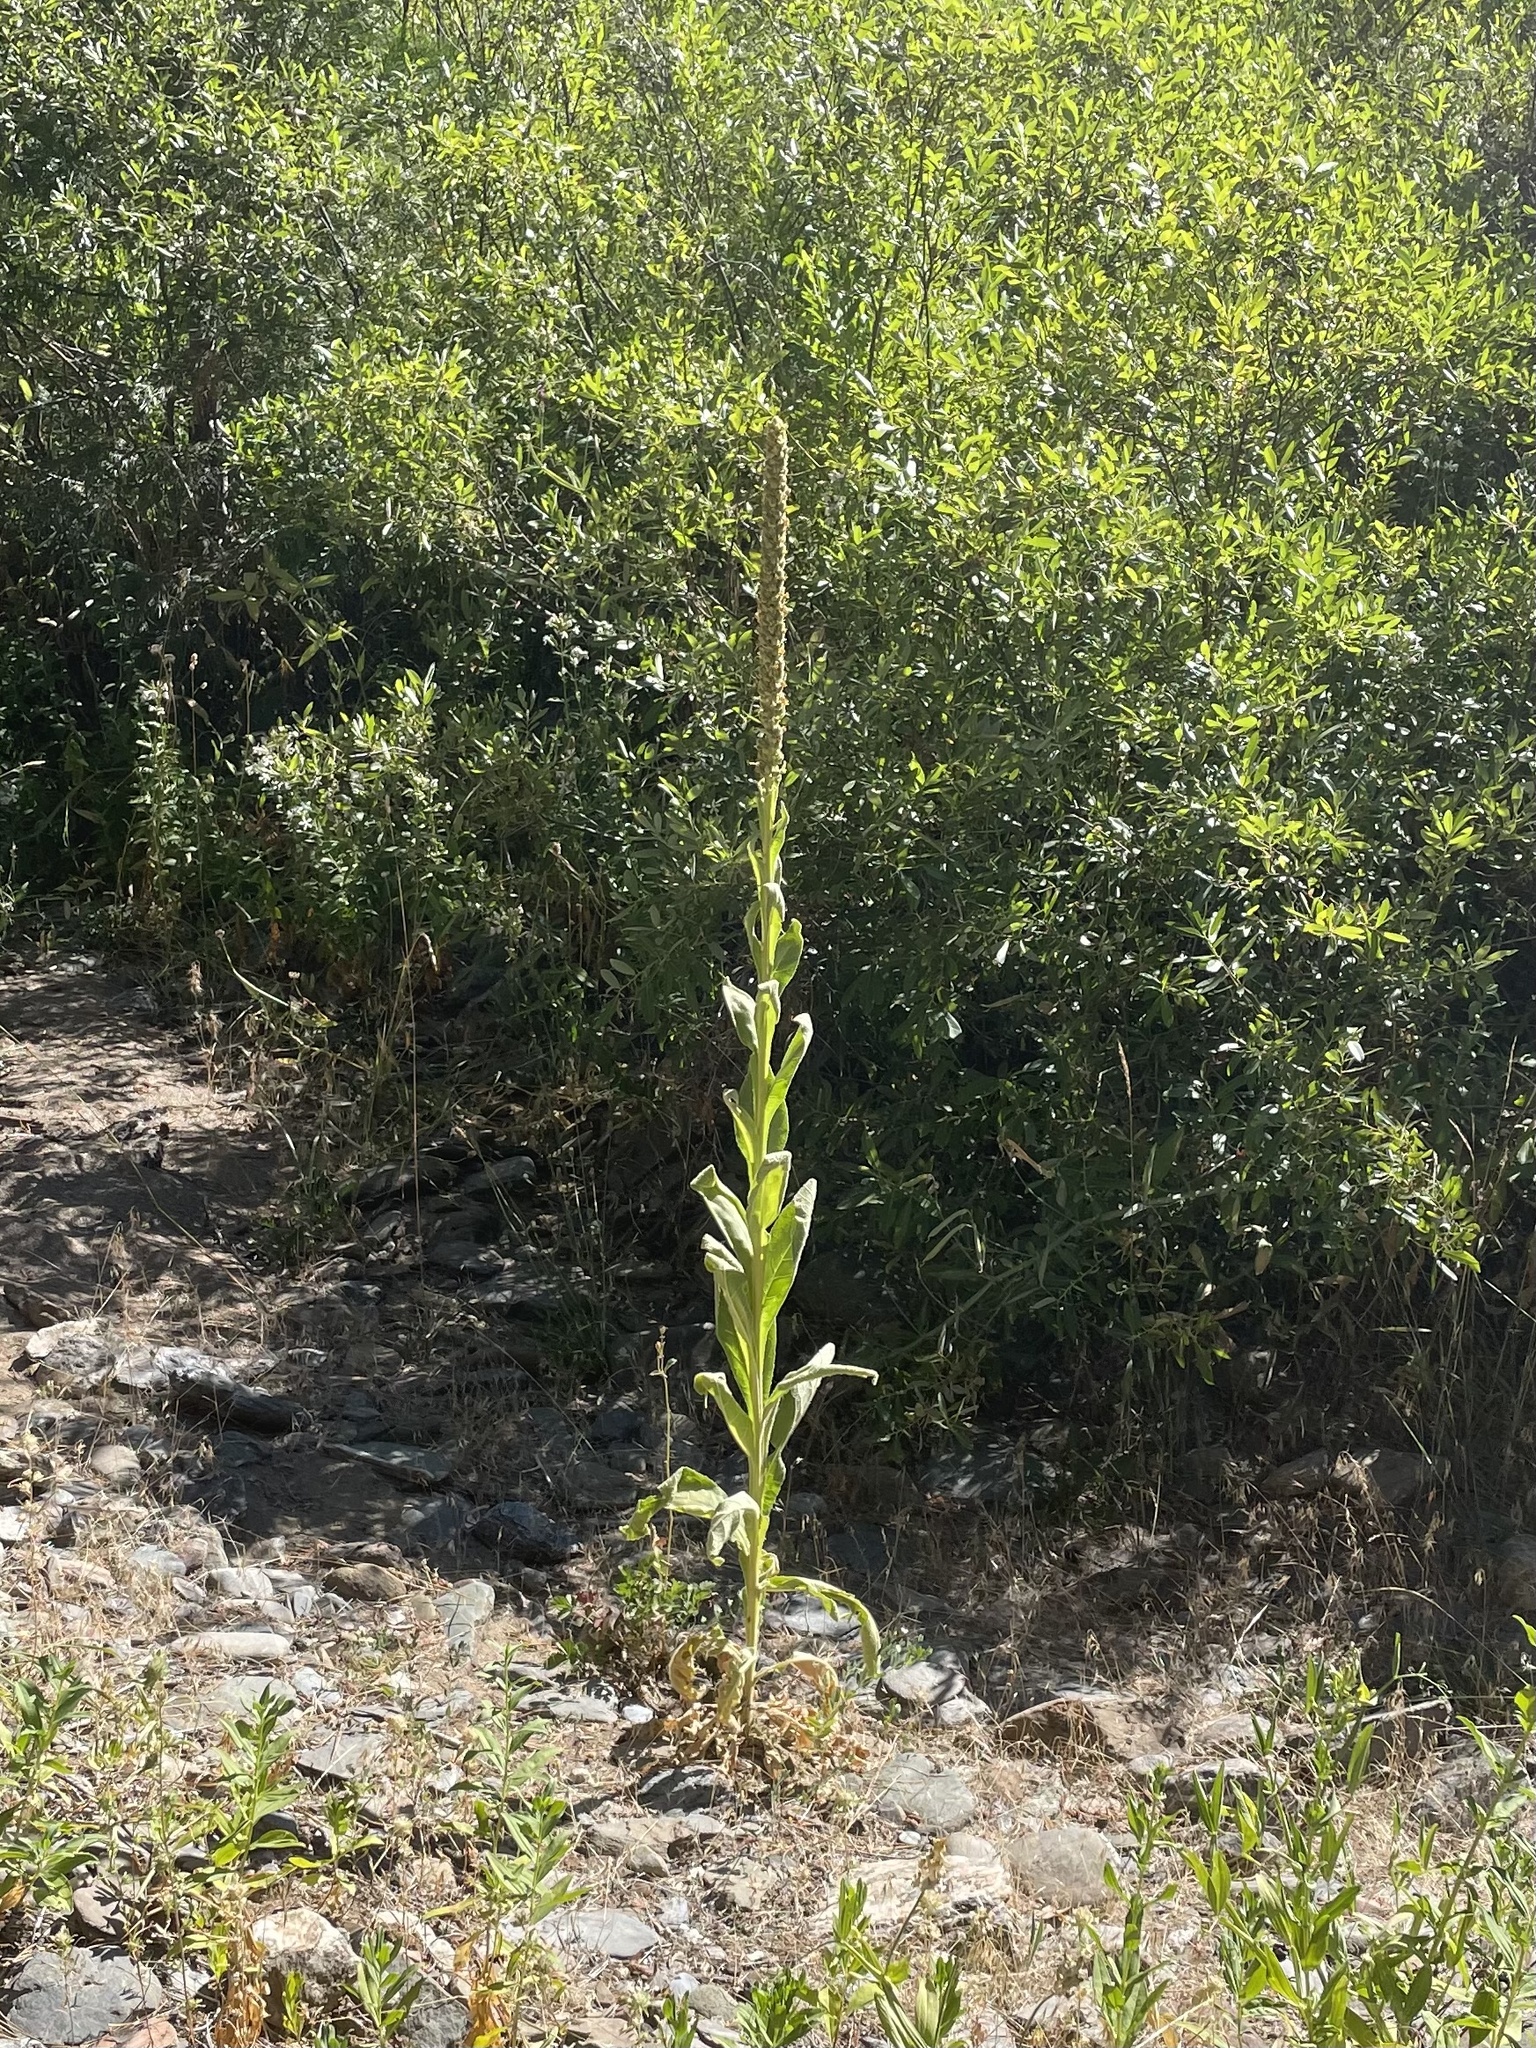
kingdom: Plantae
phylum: Tracheophyta
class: Magnoliopsida
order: Lamiales
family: Scrophulariaceae
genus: Verbascum
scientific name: Verbascum thapsus
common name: Common mullein
